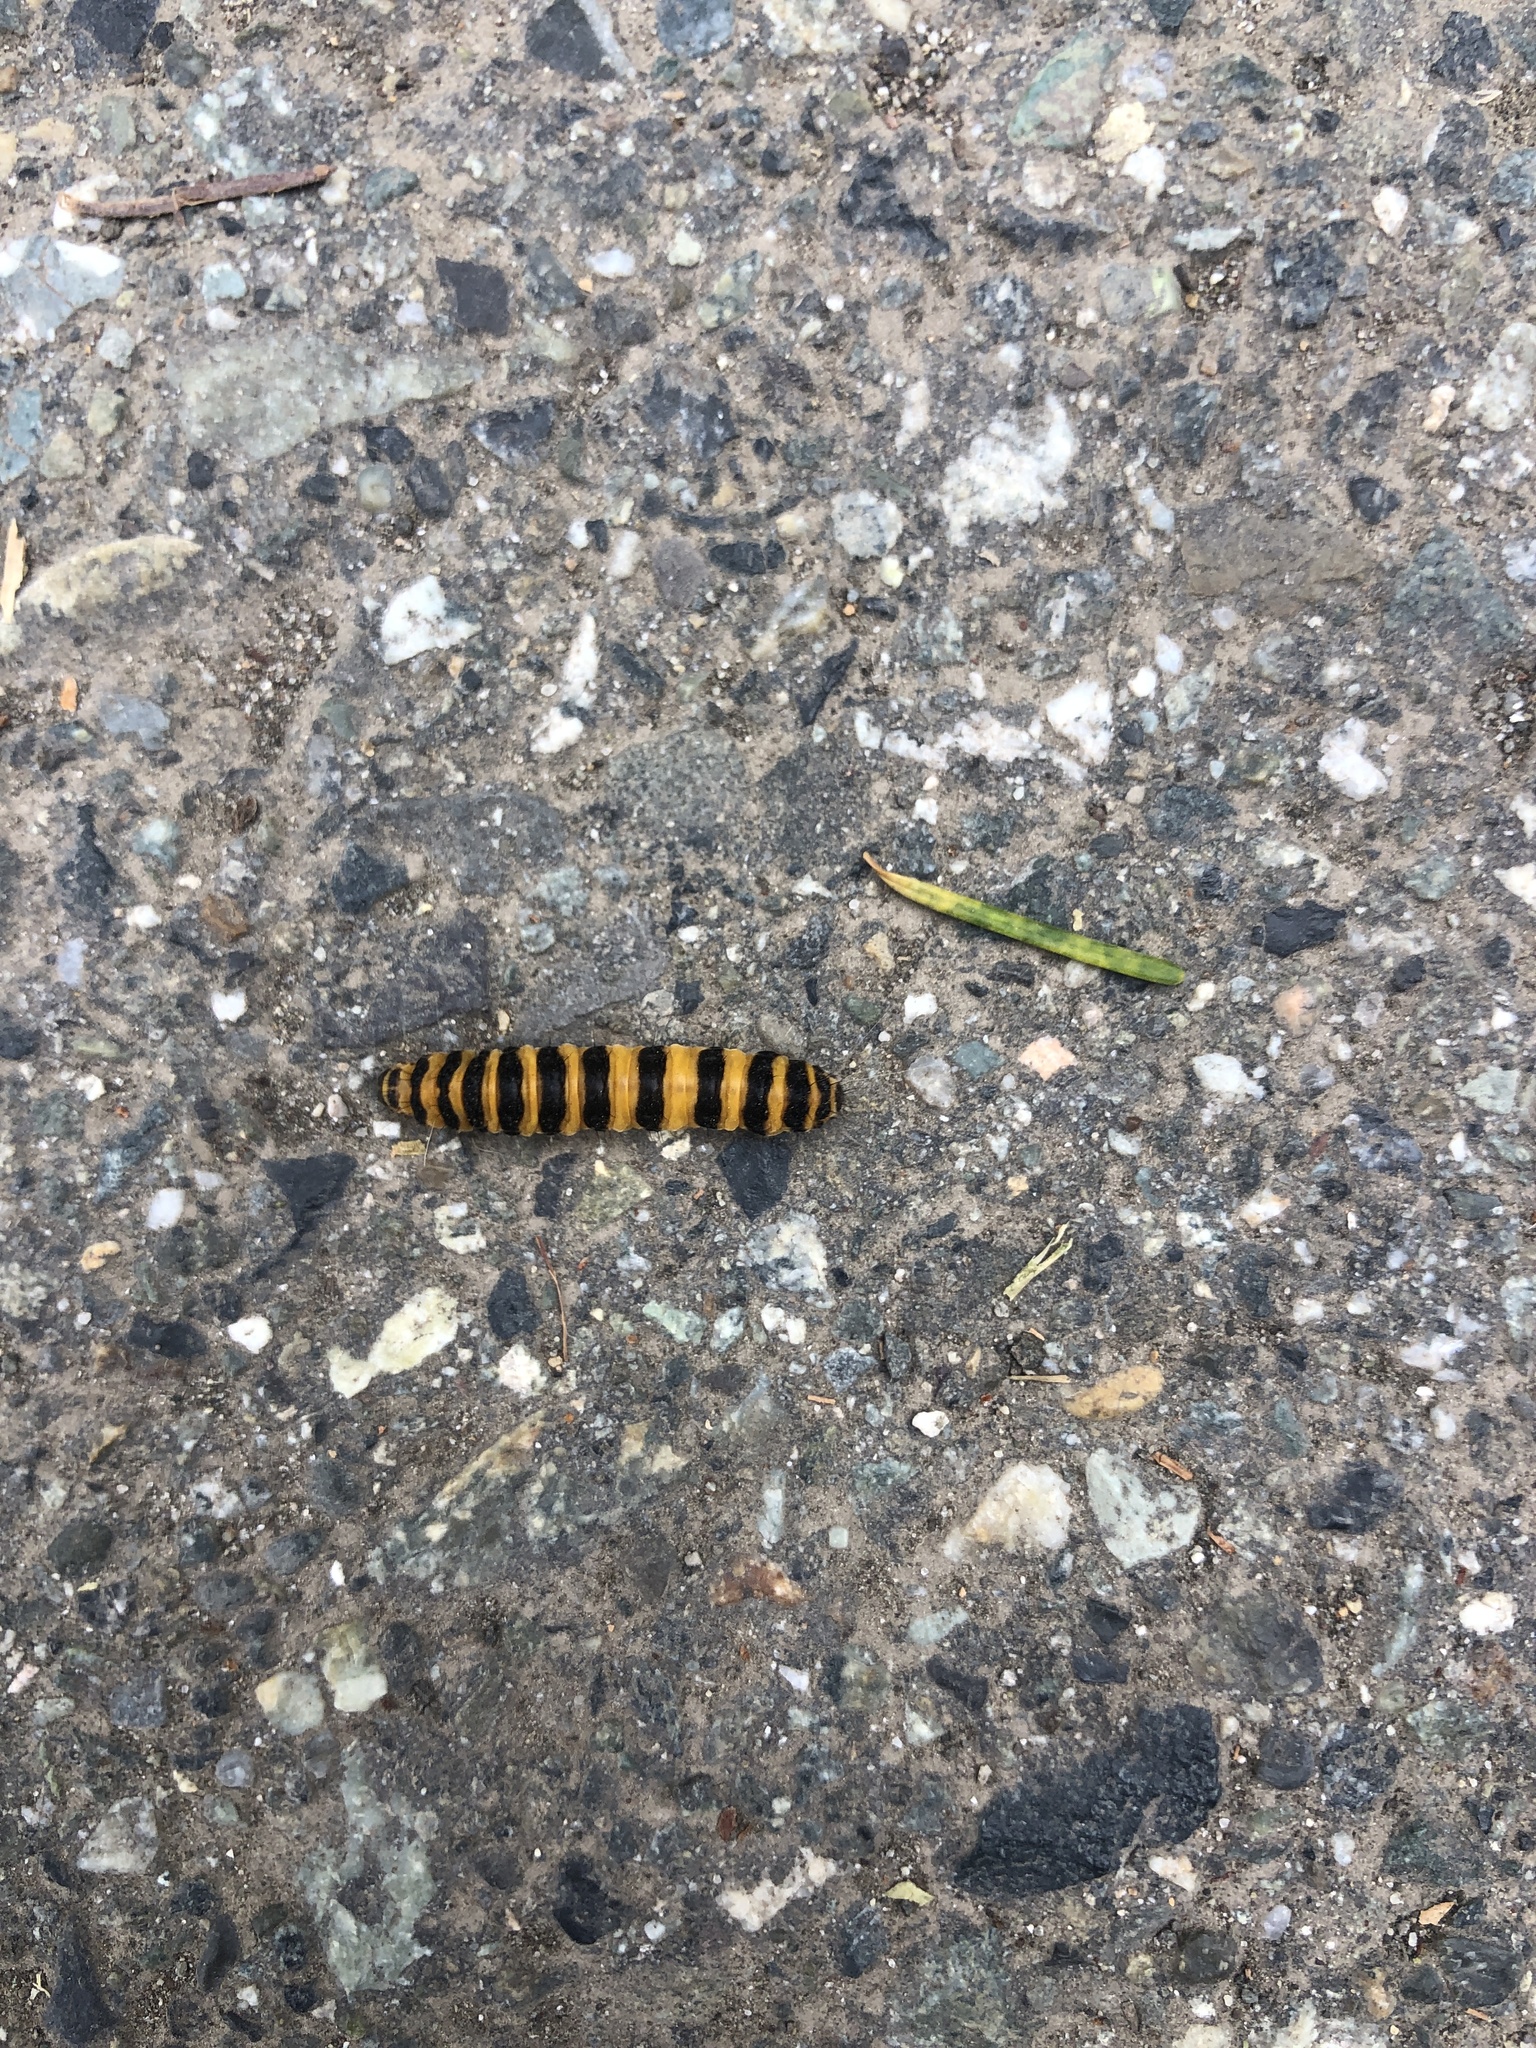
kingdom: Animalia
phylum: Arthropoda
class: Insecta
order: Lepidoptera
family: Erebidae
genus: Tyria
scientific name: Tyria jacobaeae
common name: Cinnabar
